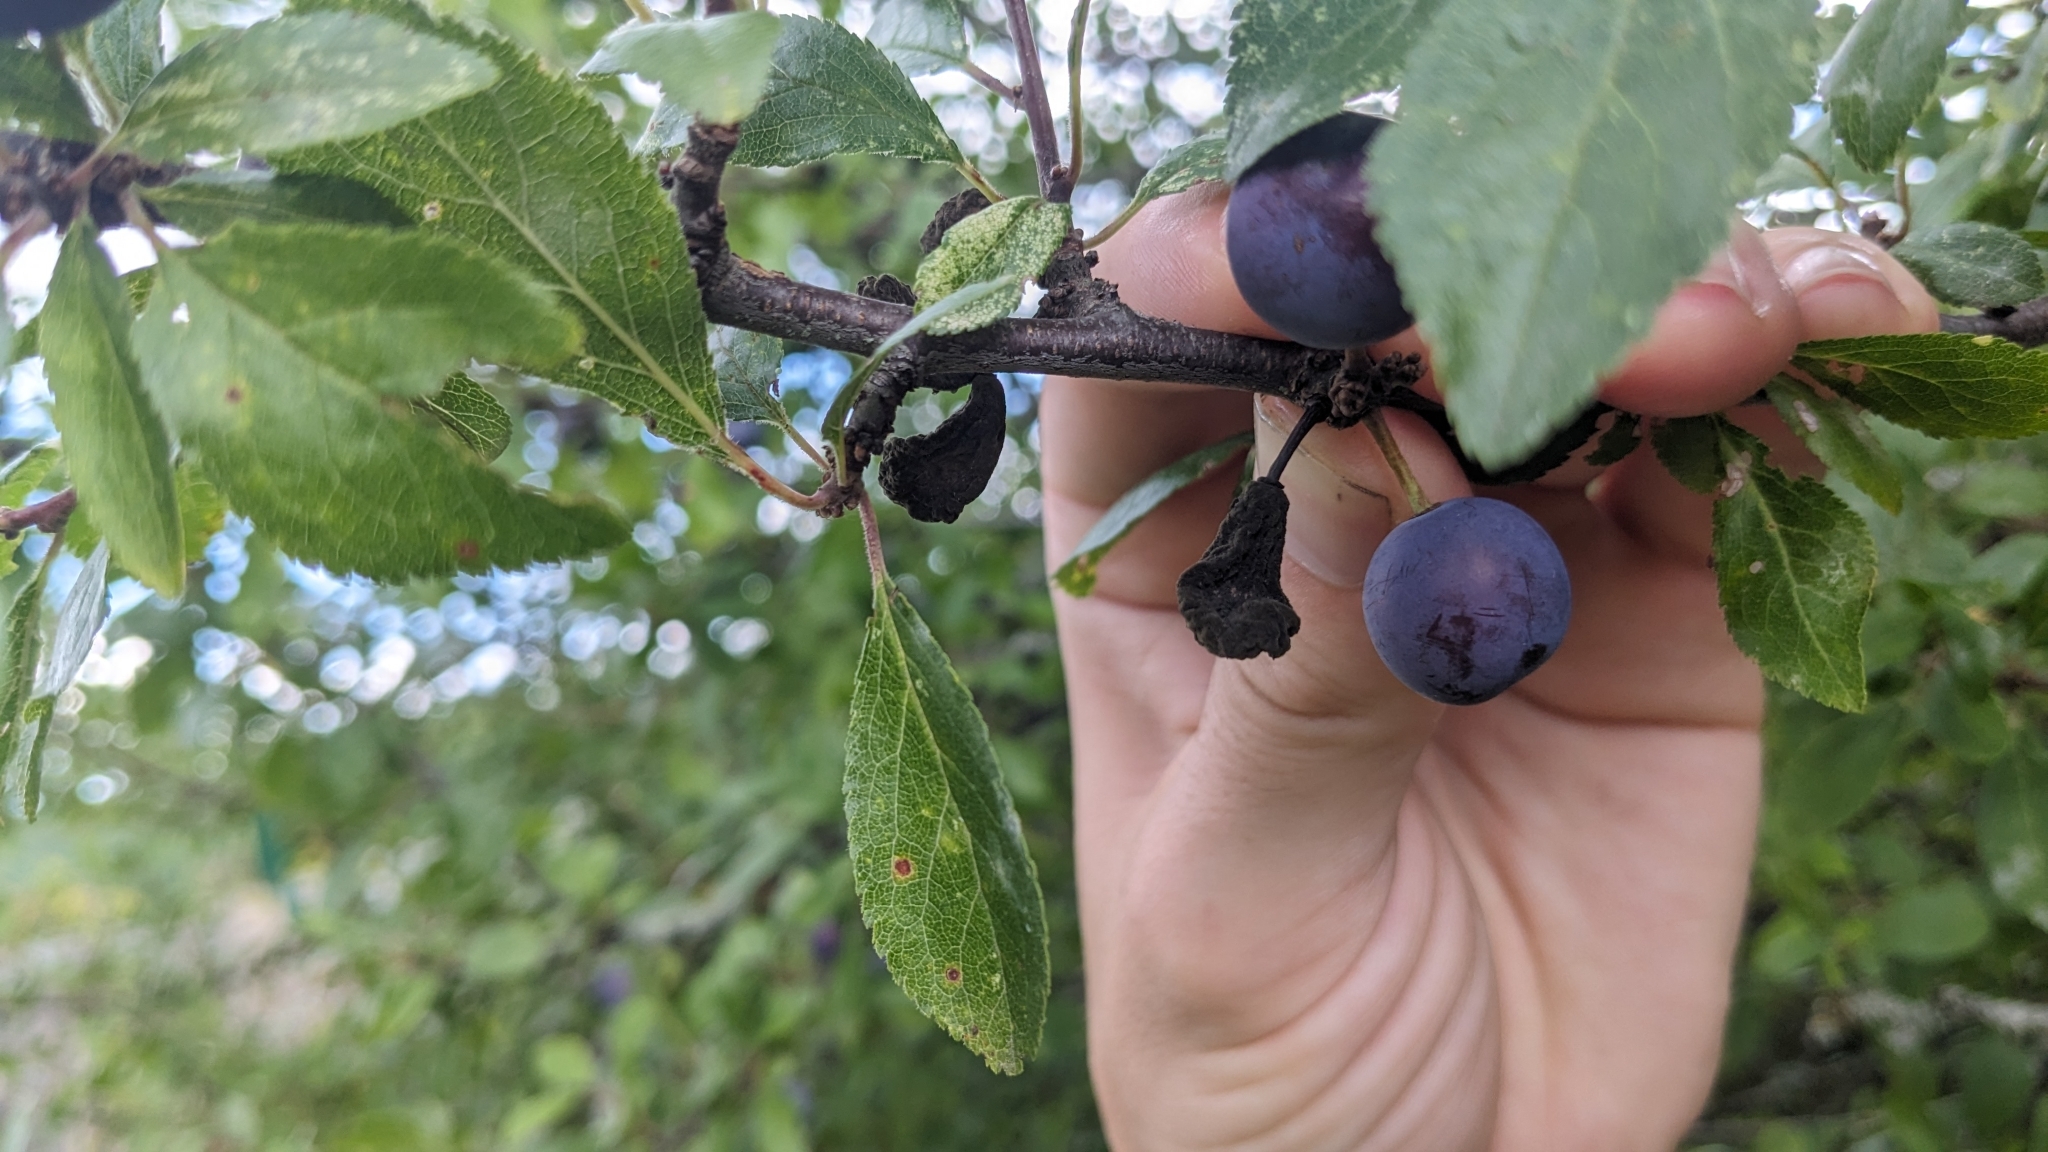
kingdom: Fungi
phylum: Ascomycota
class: Taphrinomycetes
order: Taphrinales
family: Taphrinaceae
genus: Taphrina
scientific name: Taphrina pruni
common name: Pocket plum
